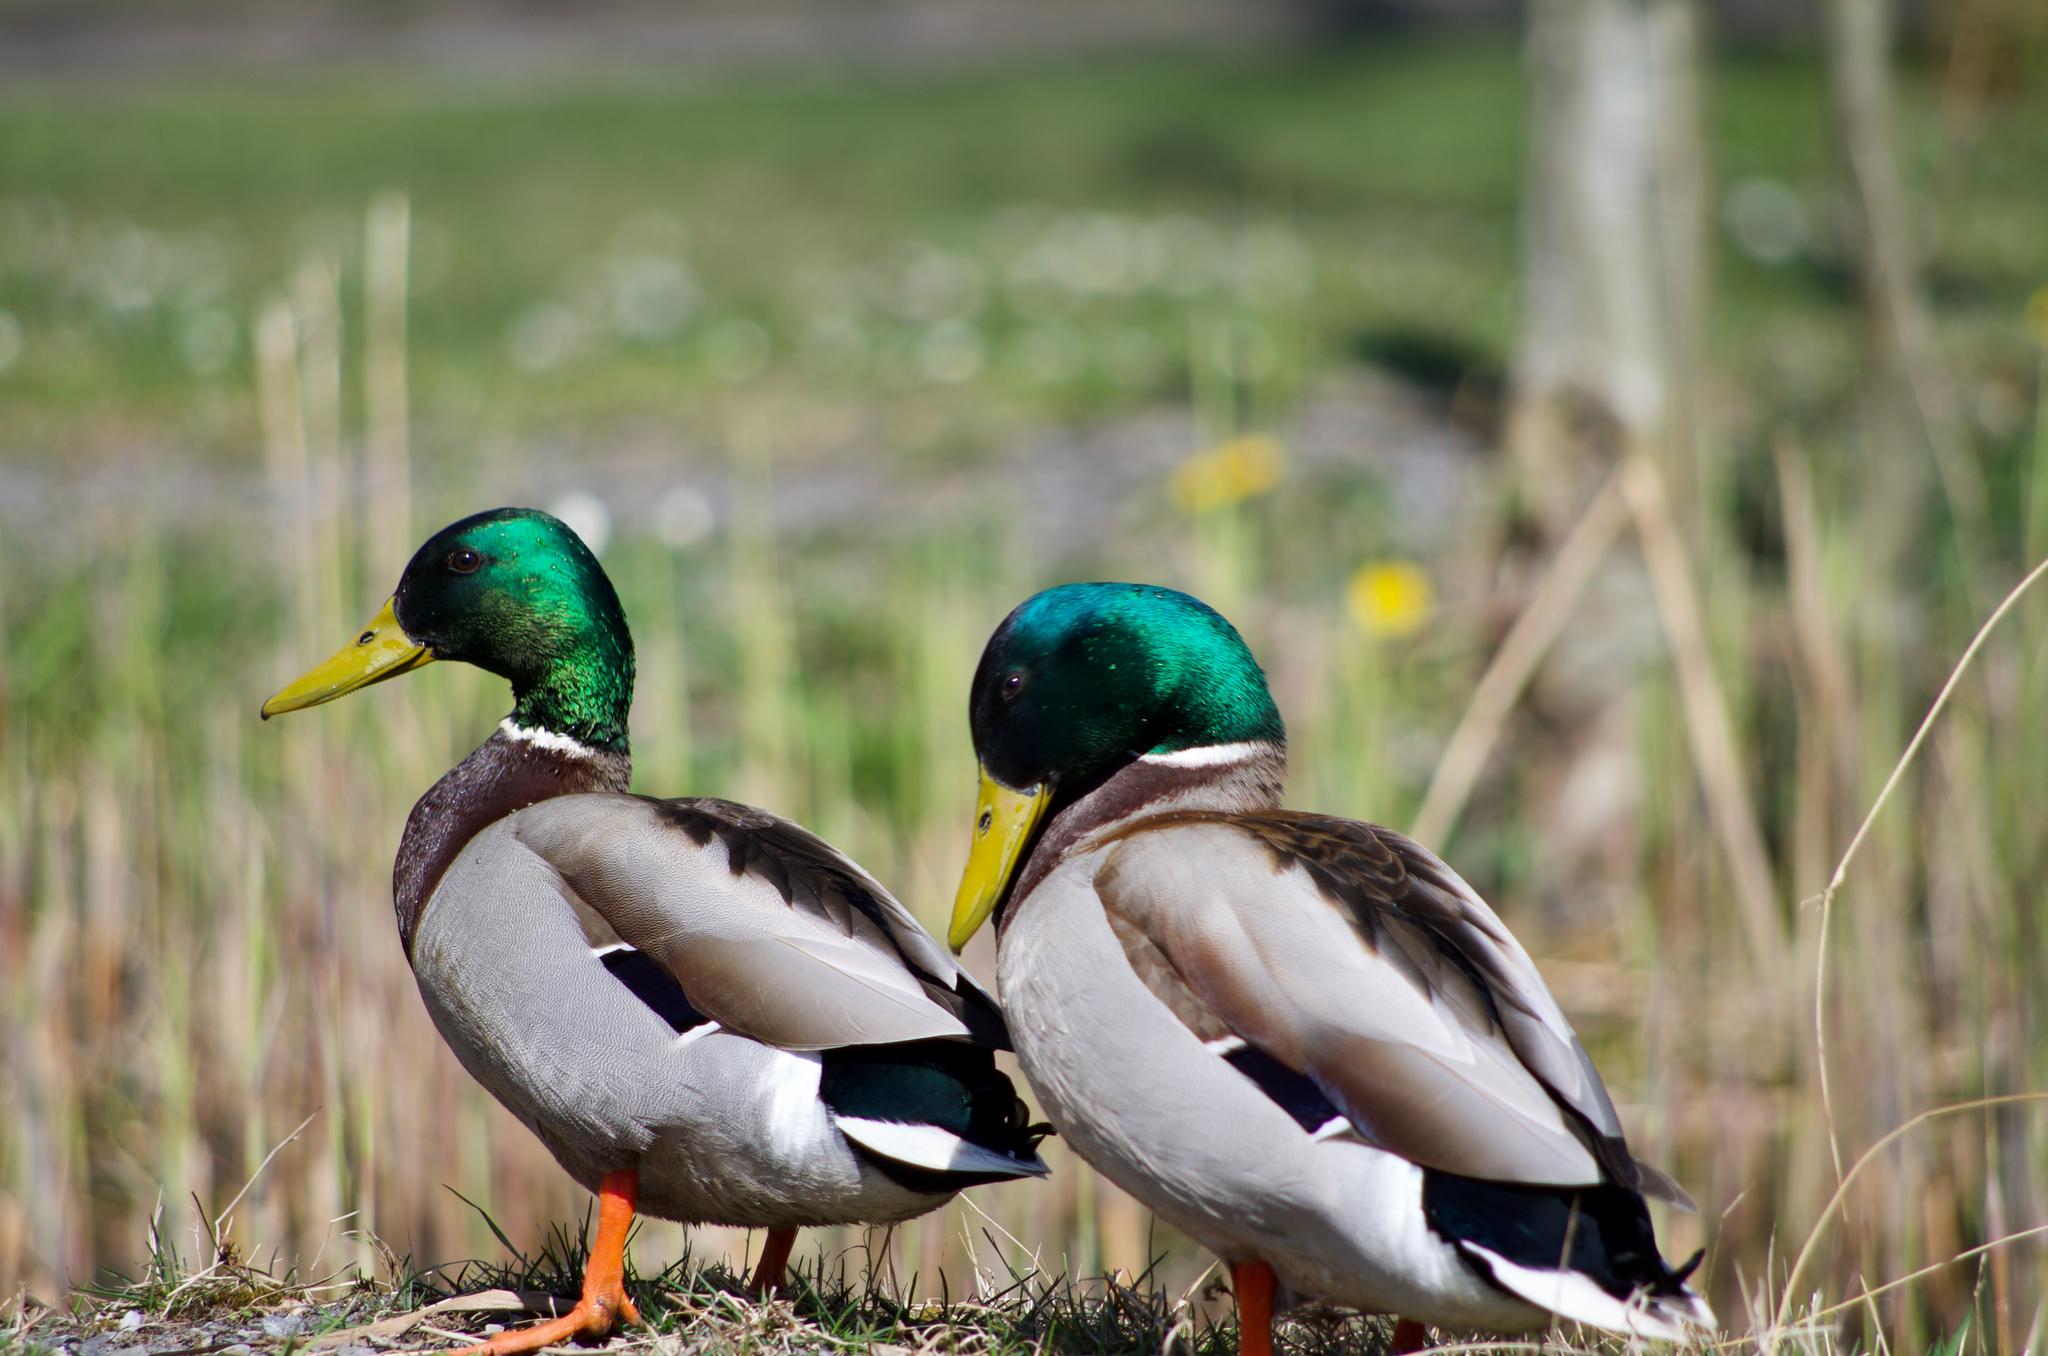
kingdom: Animalia
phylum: Chordata
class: Aves
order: Anseriformes
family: Anatidae
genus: Anas
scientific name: Anas platyrhynchos
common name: Mallard
